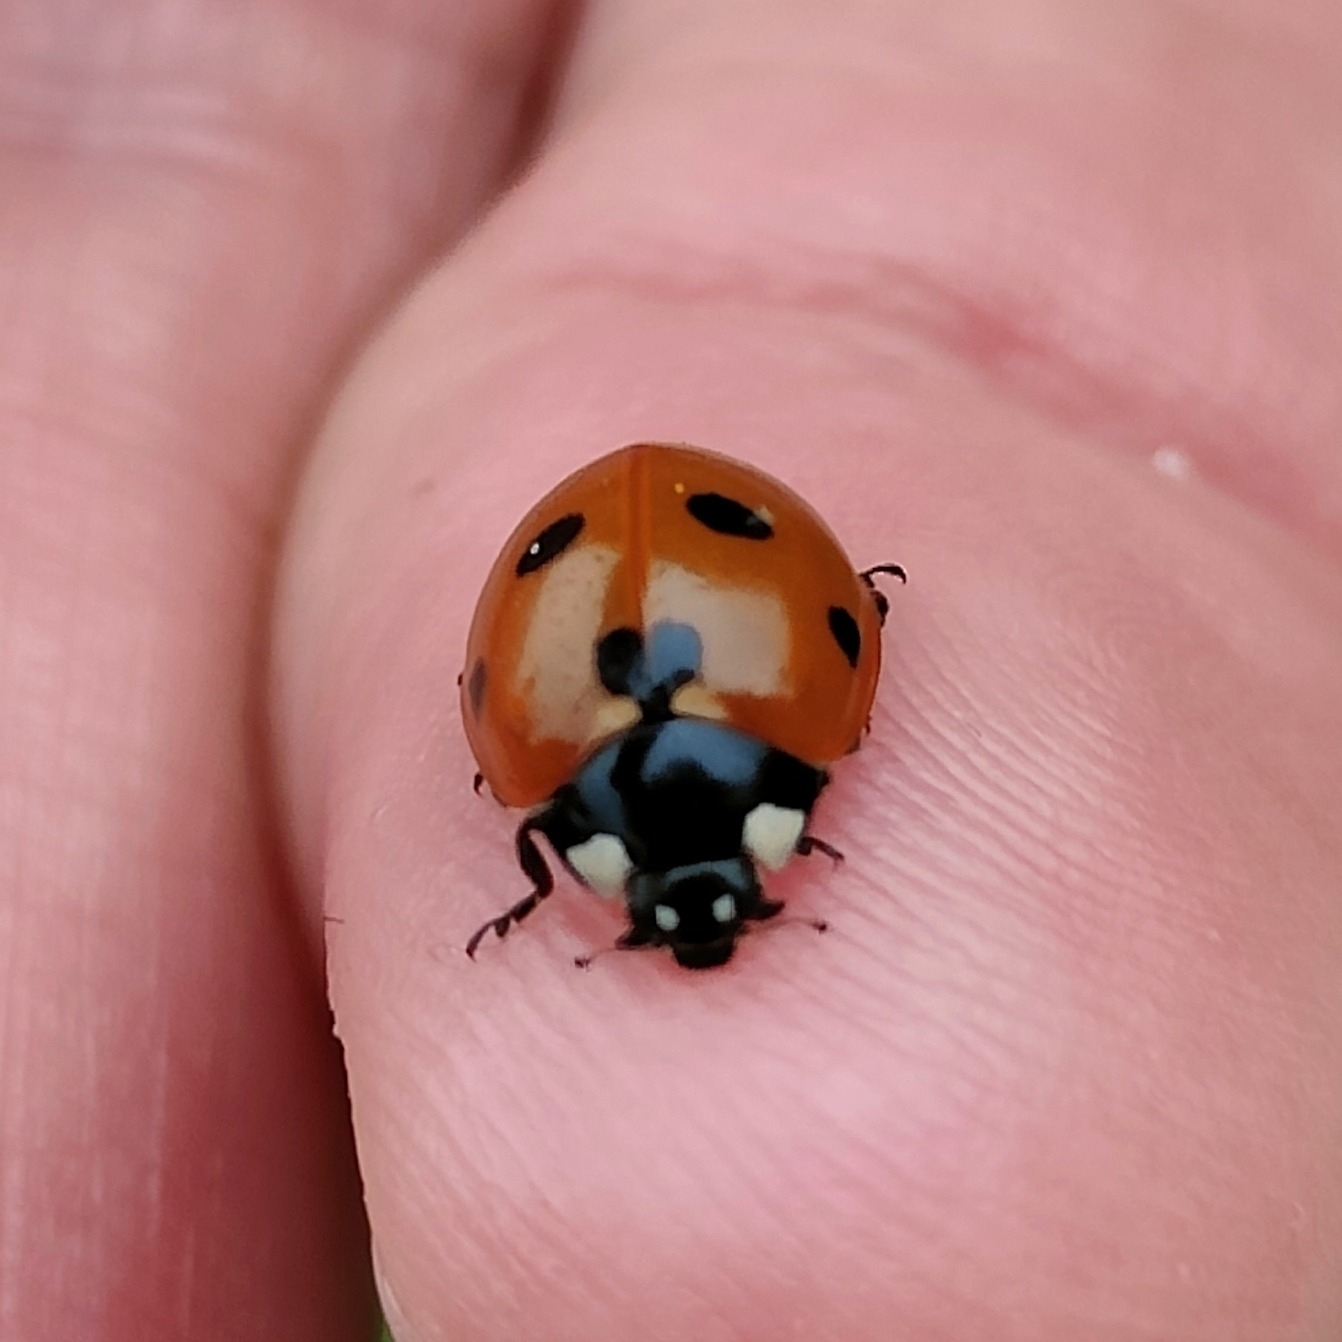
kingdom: Animalia
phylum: Arthropoda
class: Insecta
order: Coleoptera
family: Coccinellidae
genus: Coccinella
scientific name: Coccinella septempunctata
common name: Sevenspotted lady beetle
